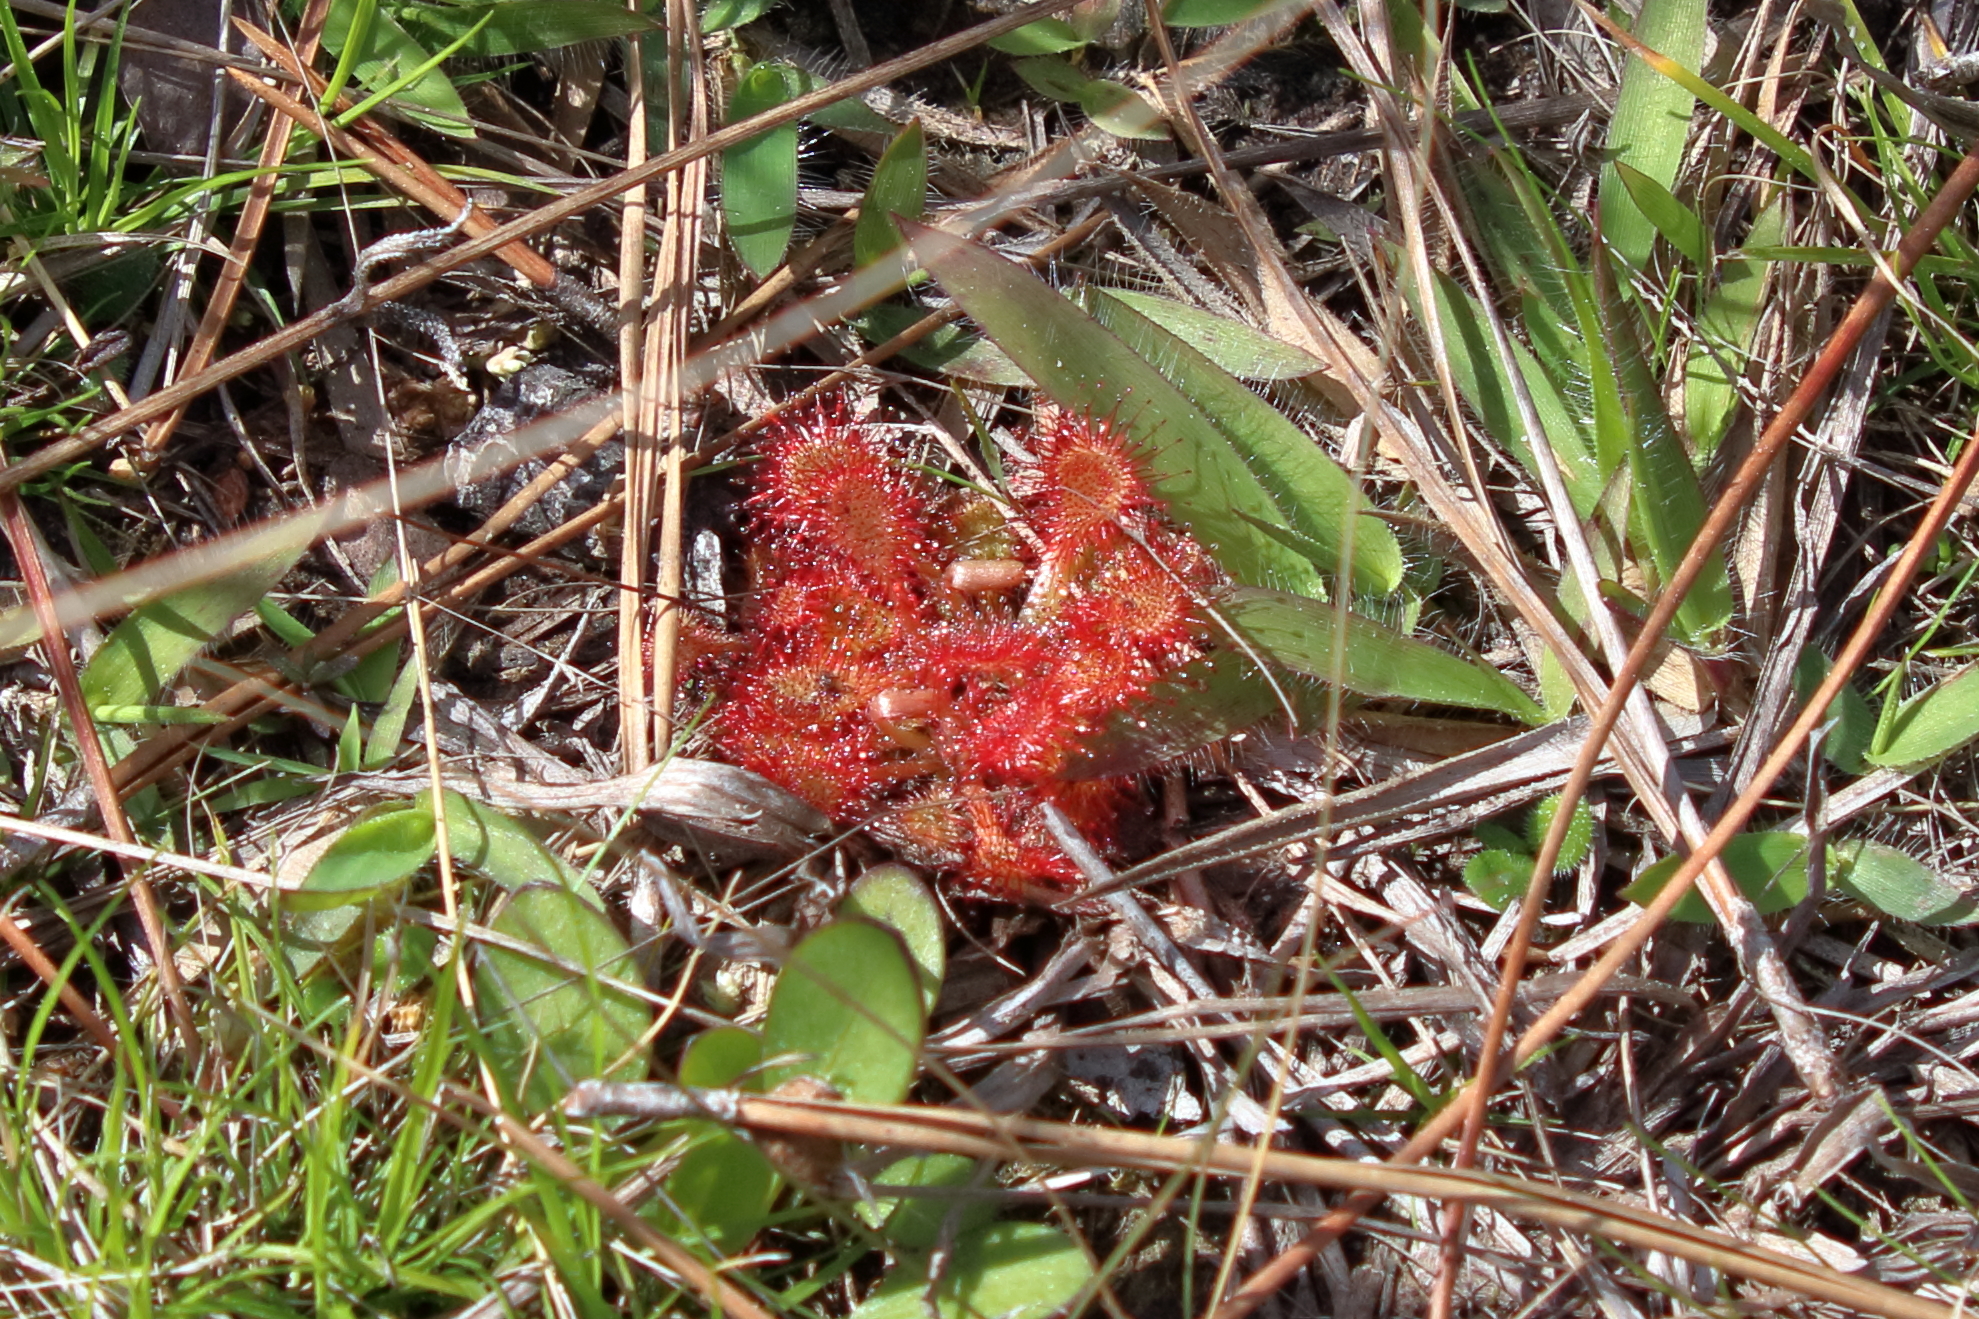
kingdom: Plantae
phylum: Tracheophyta
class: Magnoliopsida
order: Caryophyllales
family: Droseraceae
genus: Drosera
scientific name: Drosera capillaris
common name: Pink sundew
